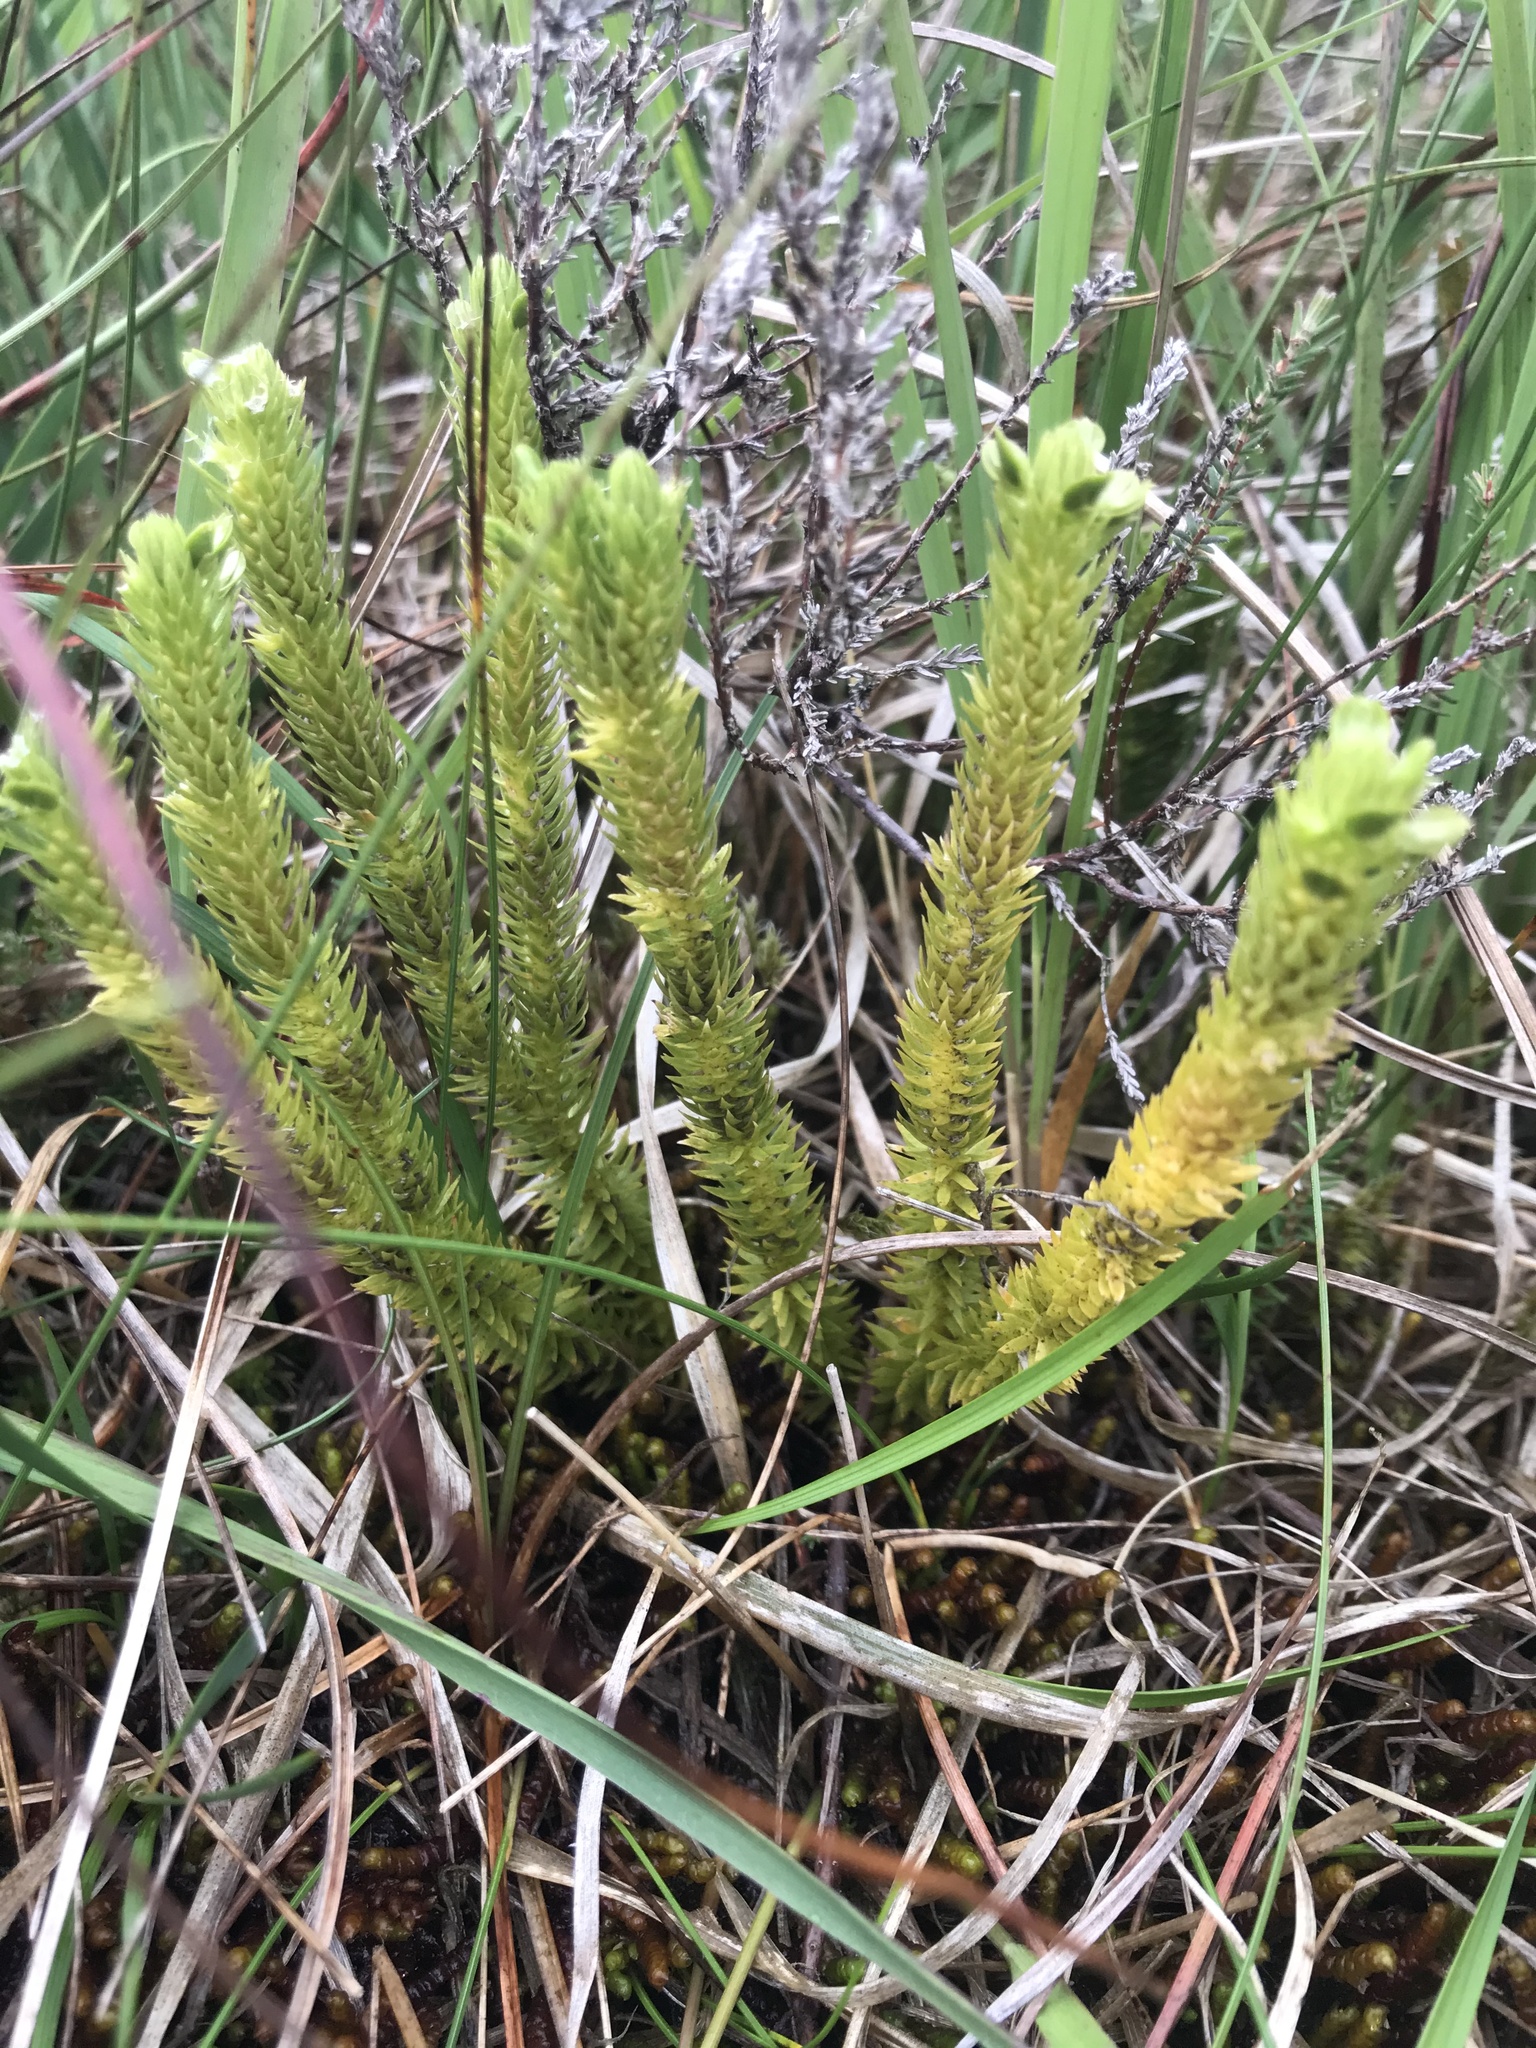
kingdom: Plantae
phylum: Tracheophyta
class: Lycopodiopsida
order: Lycopodiales
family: Lycopodiaceae
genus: Huperzia
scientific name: Huperzia selago
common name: Northern firmoss
